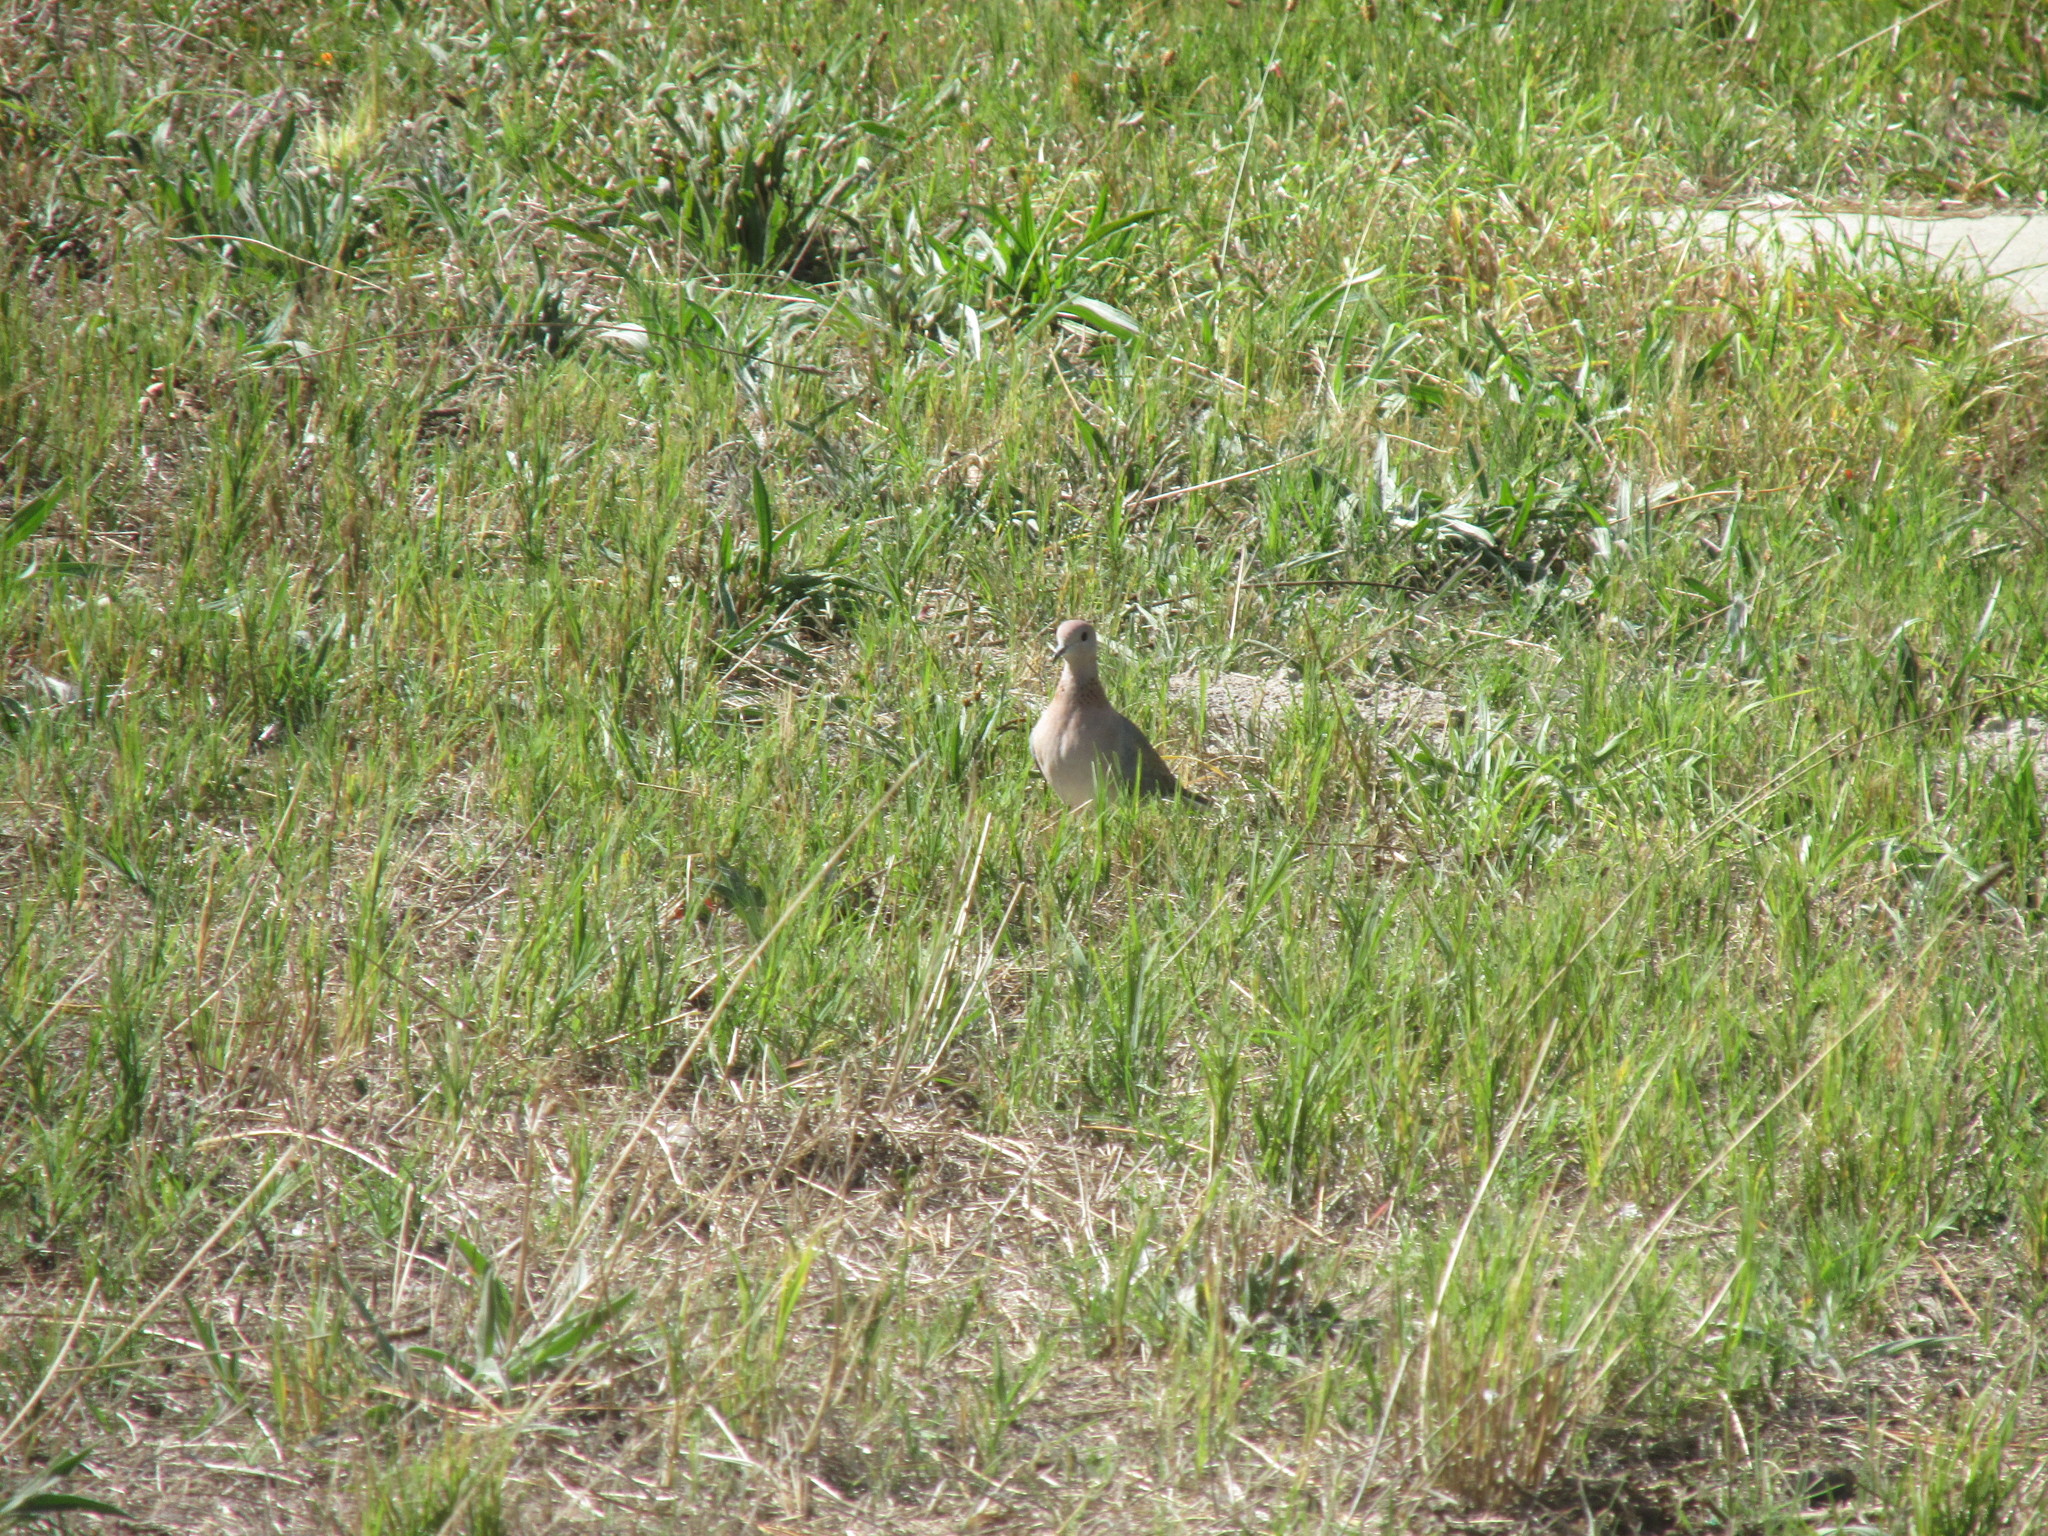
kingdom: Animalia
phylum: Chordata
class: Aves
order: Columbiformes
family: Columbidae
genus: Spilopelia
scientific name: Spilopelia senegalensis
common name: Laughing dove
